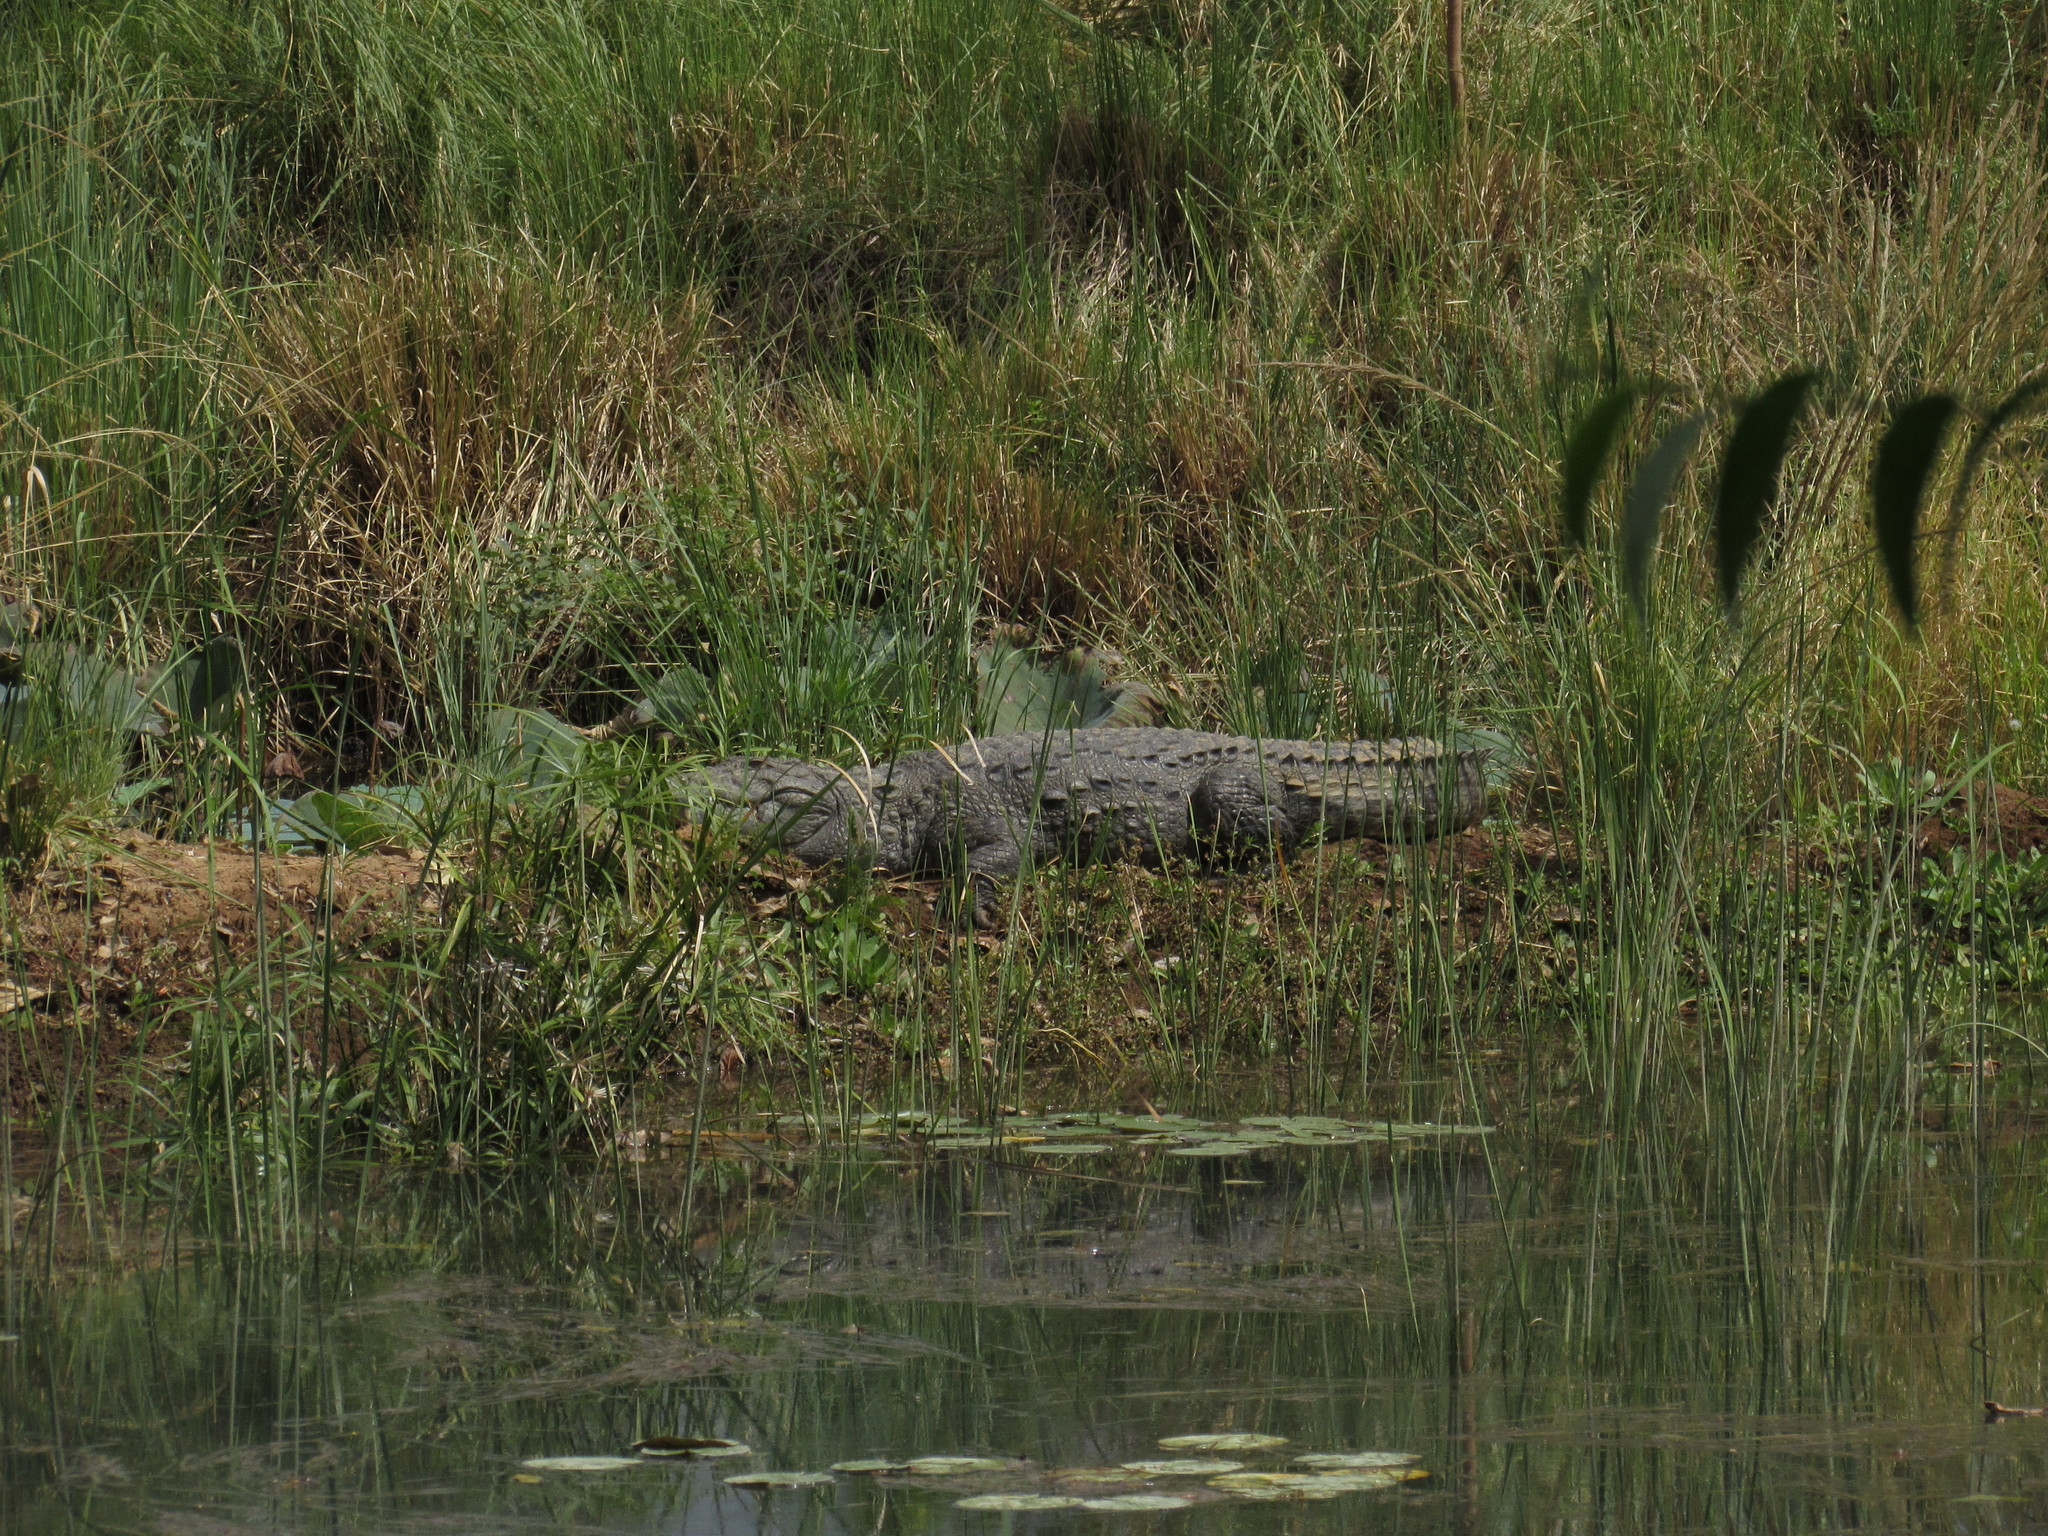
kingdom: Animalia
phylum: Chordata
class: Crocodylia
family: Crocodylidae
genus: Crocodylus
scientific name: Crocodylus palustris
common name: Mugger crocodile
